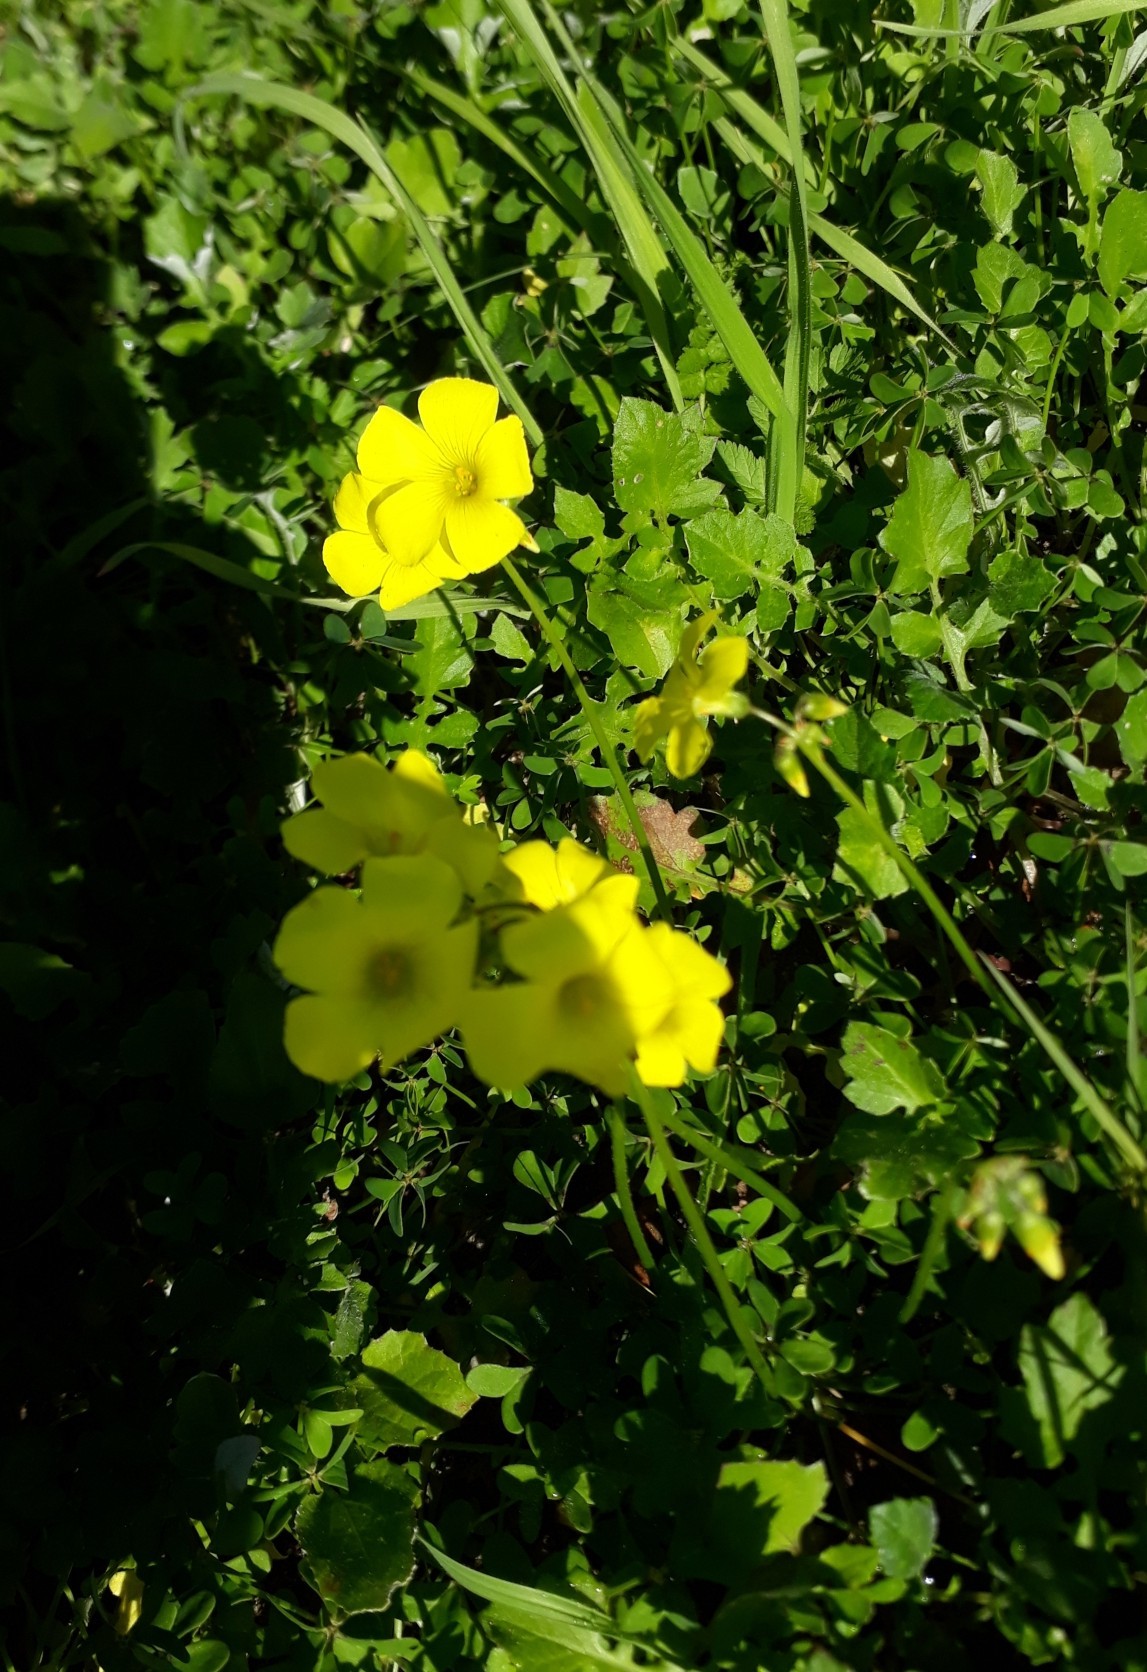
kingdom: Plantae
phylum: Tracheophyta
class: Magnoliopsida
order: Oxalidales
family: Oxalidaceae
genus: Oxalis
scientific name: Oxalis pes-caprae
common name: Bermuda-buttercup
